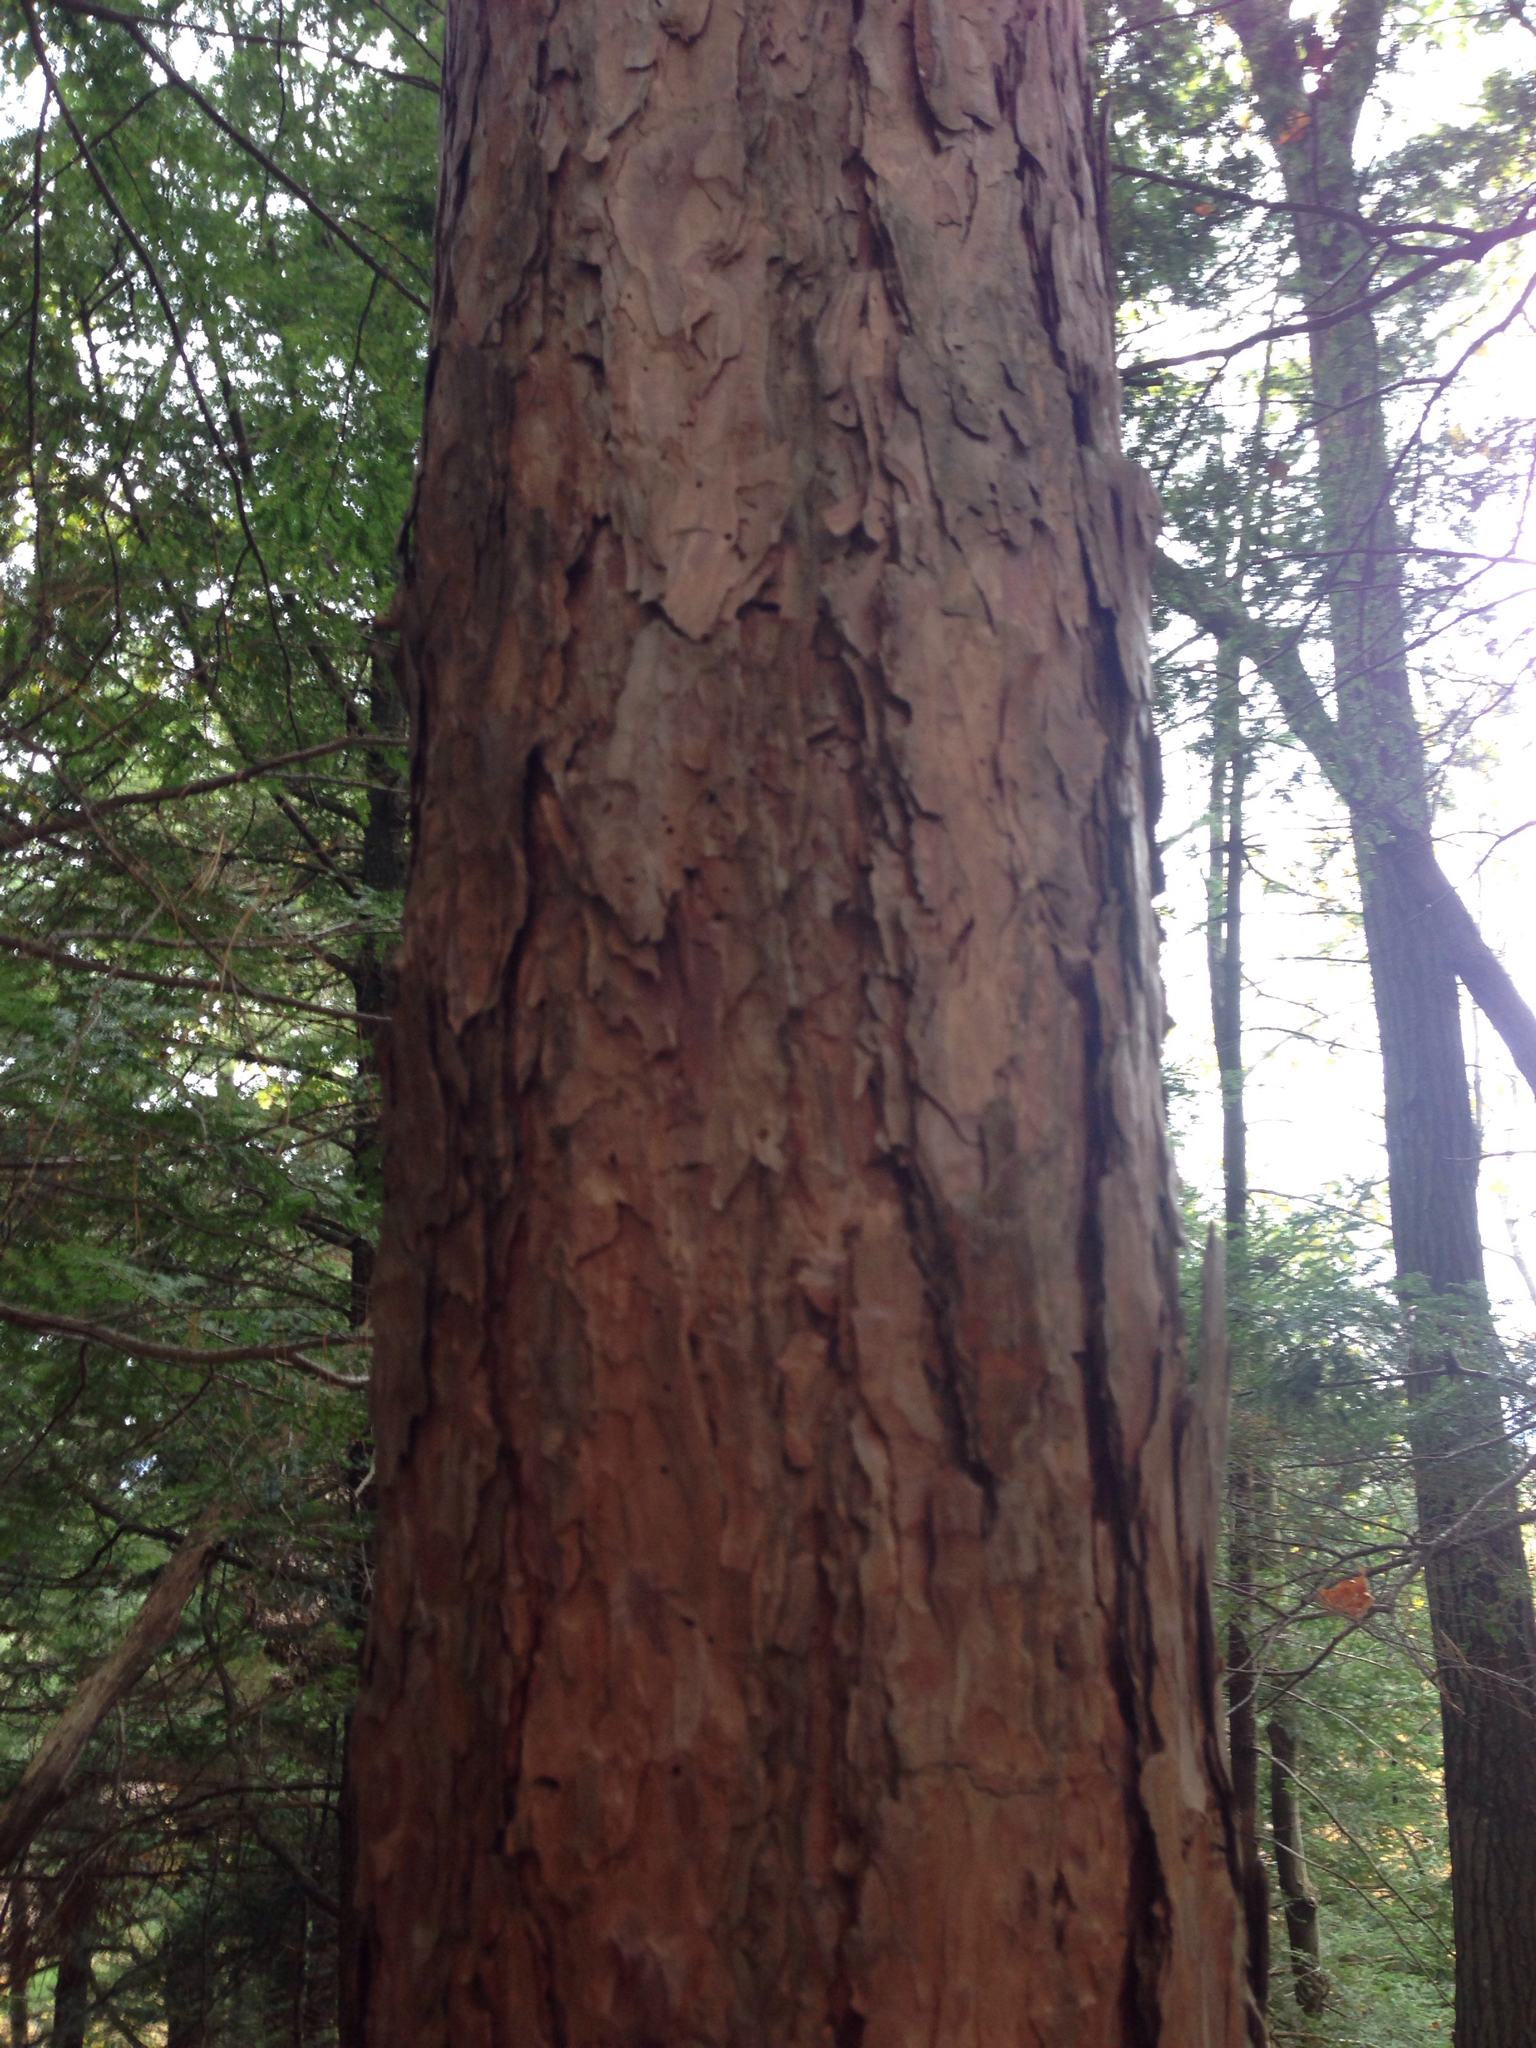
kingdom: Plantae
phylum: Tracheophyta
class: Pinopsida
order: Pinales
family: Pinaceae
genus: Pinus
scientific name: Pinus resinosa
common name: Norway pine
